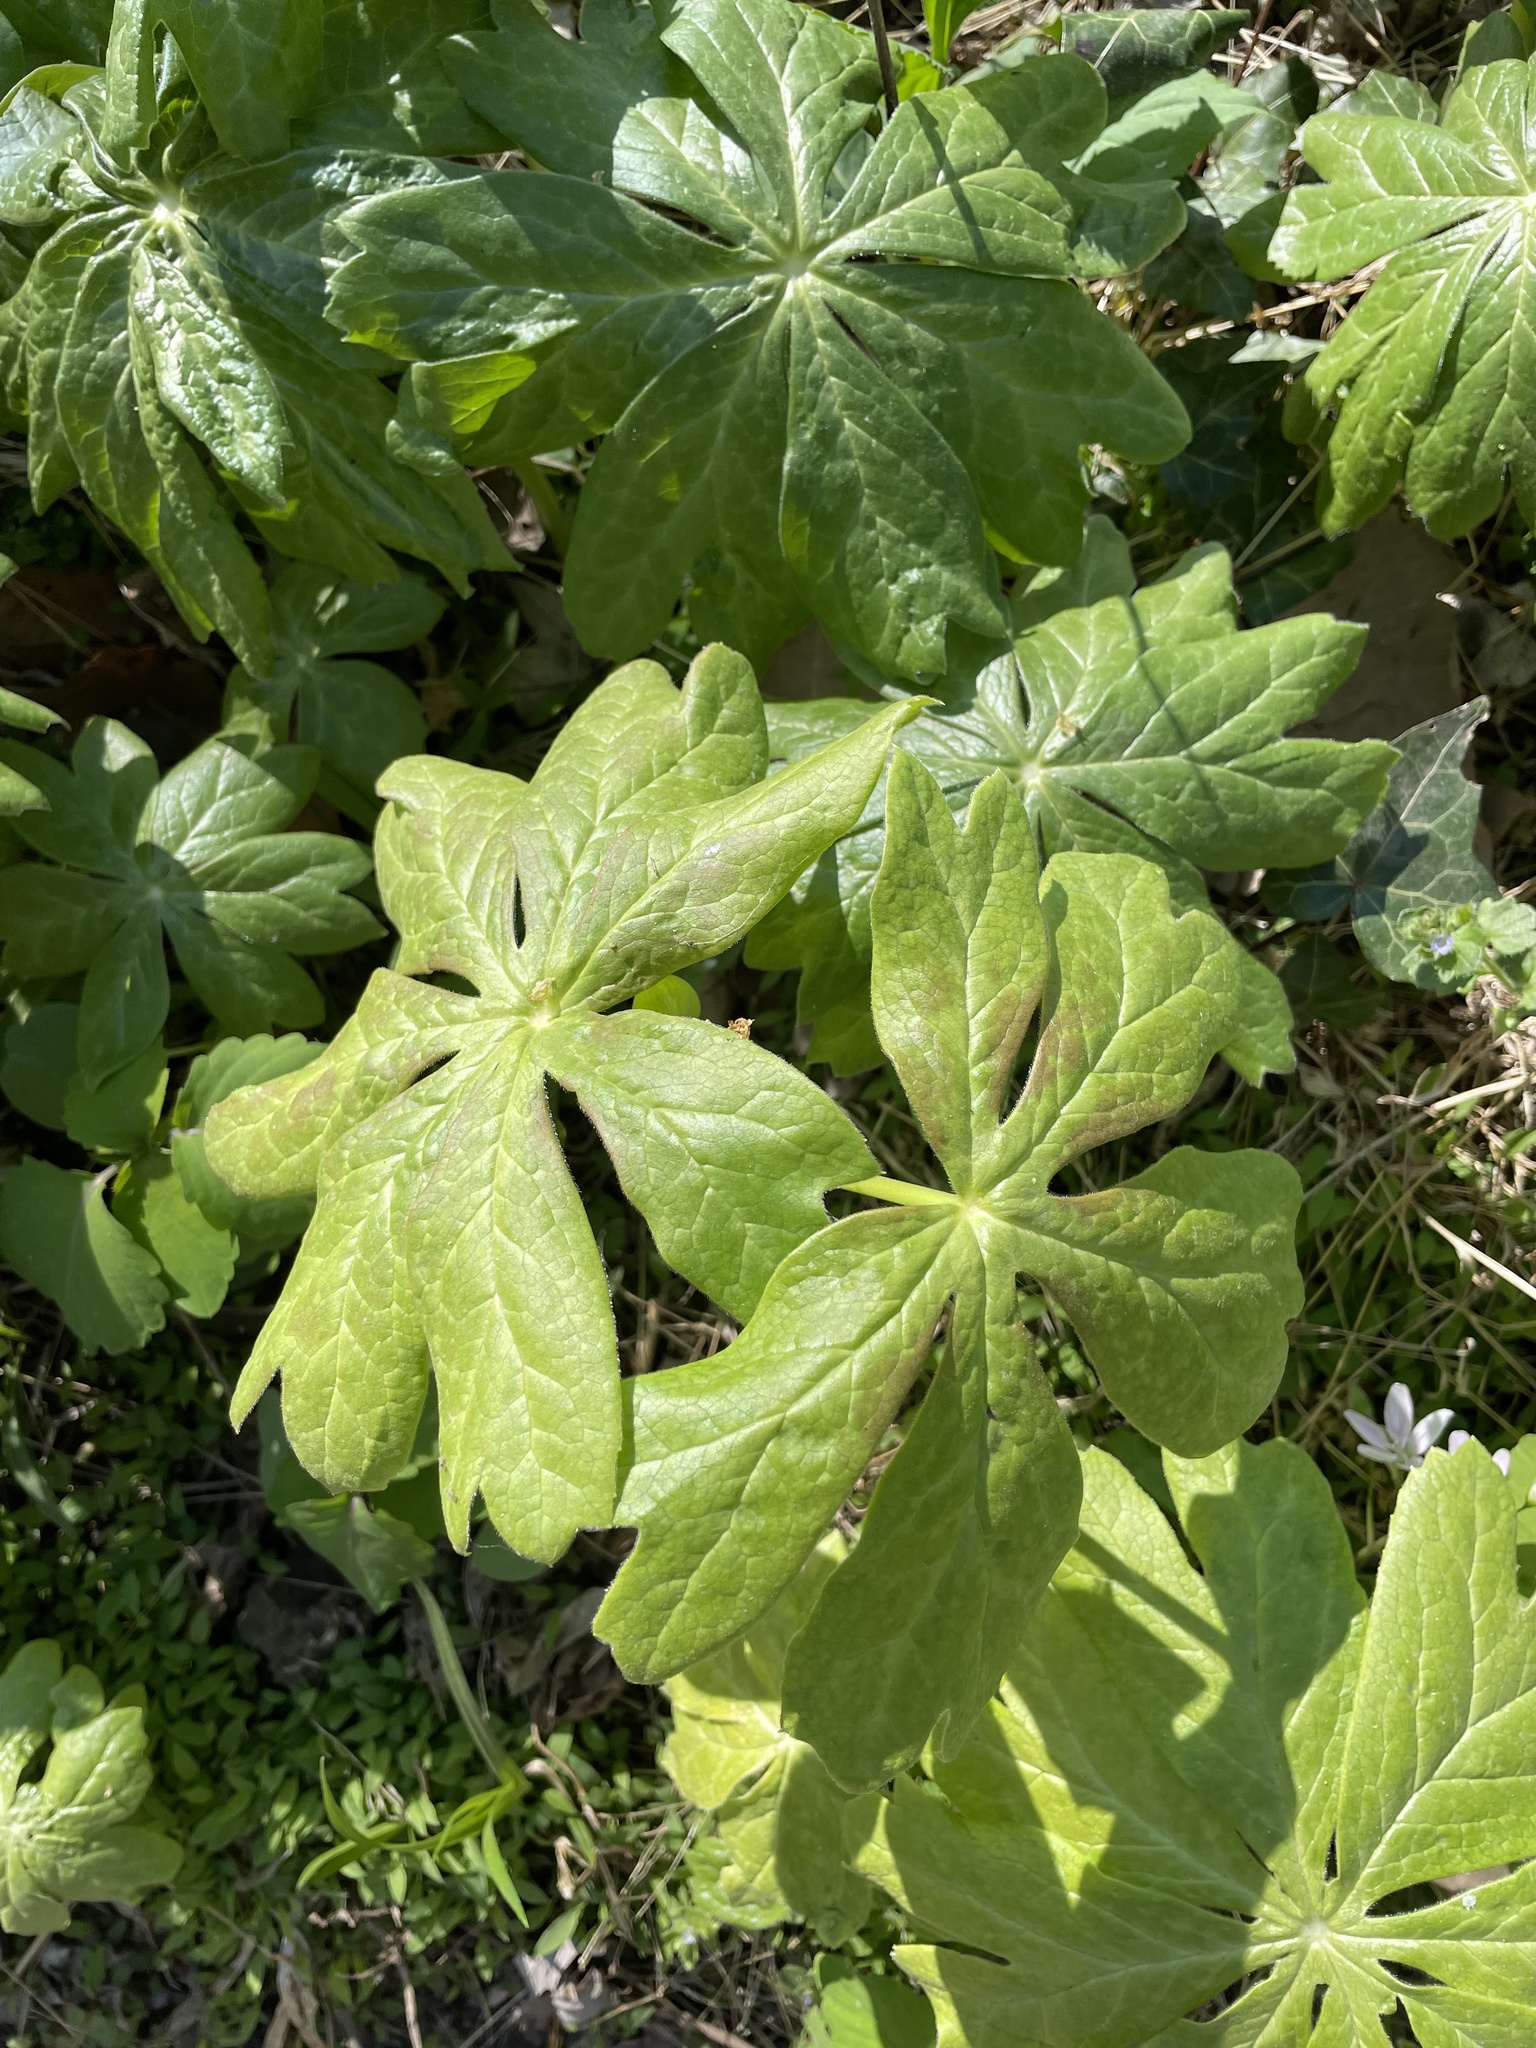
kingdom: Plantae
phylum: Tracheophyta
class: Magnoliopsida
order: Ranunculales
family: Berberidaceae
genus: Podophyllum
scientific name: Podophyllum peltatum
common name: Wild mandrake
